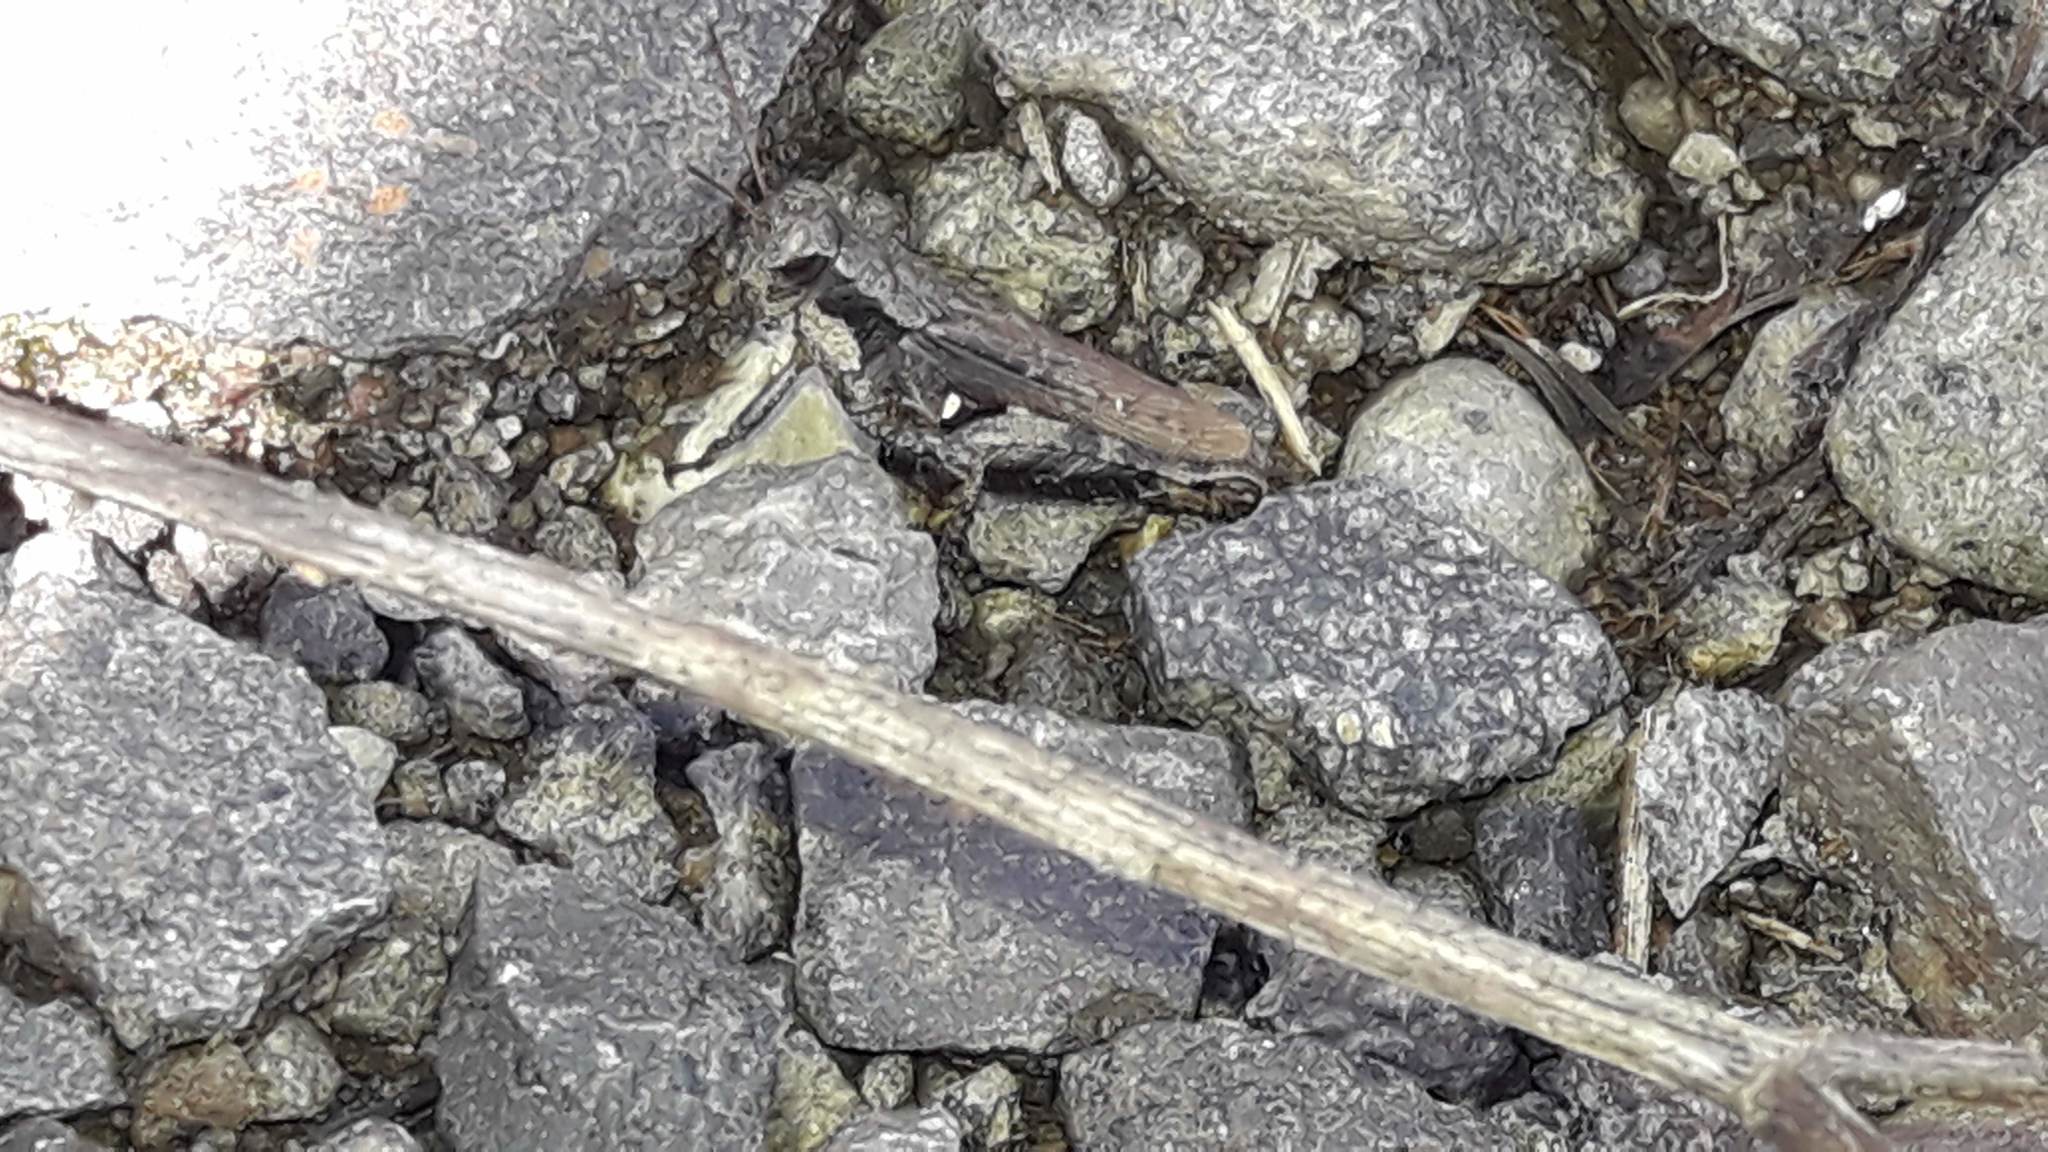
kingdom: Animalia
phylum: Arthropoda
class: Insecta
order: Orthoptera
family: Acrididae
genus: Aidemona
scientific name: Aidemona azteca
